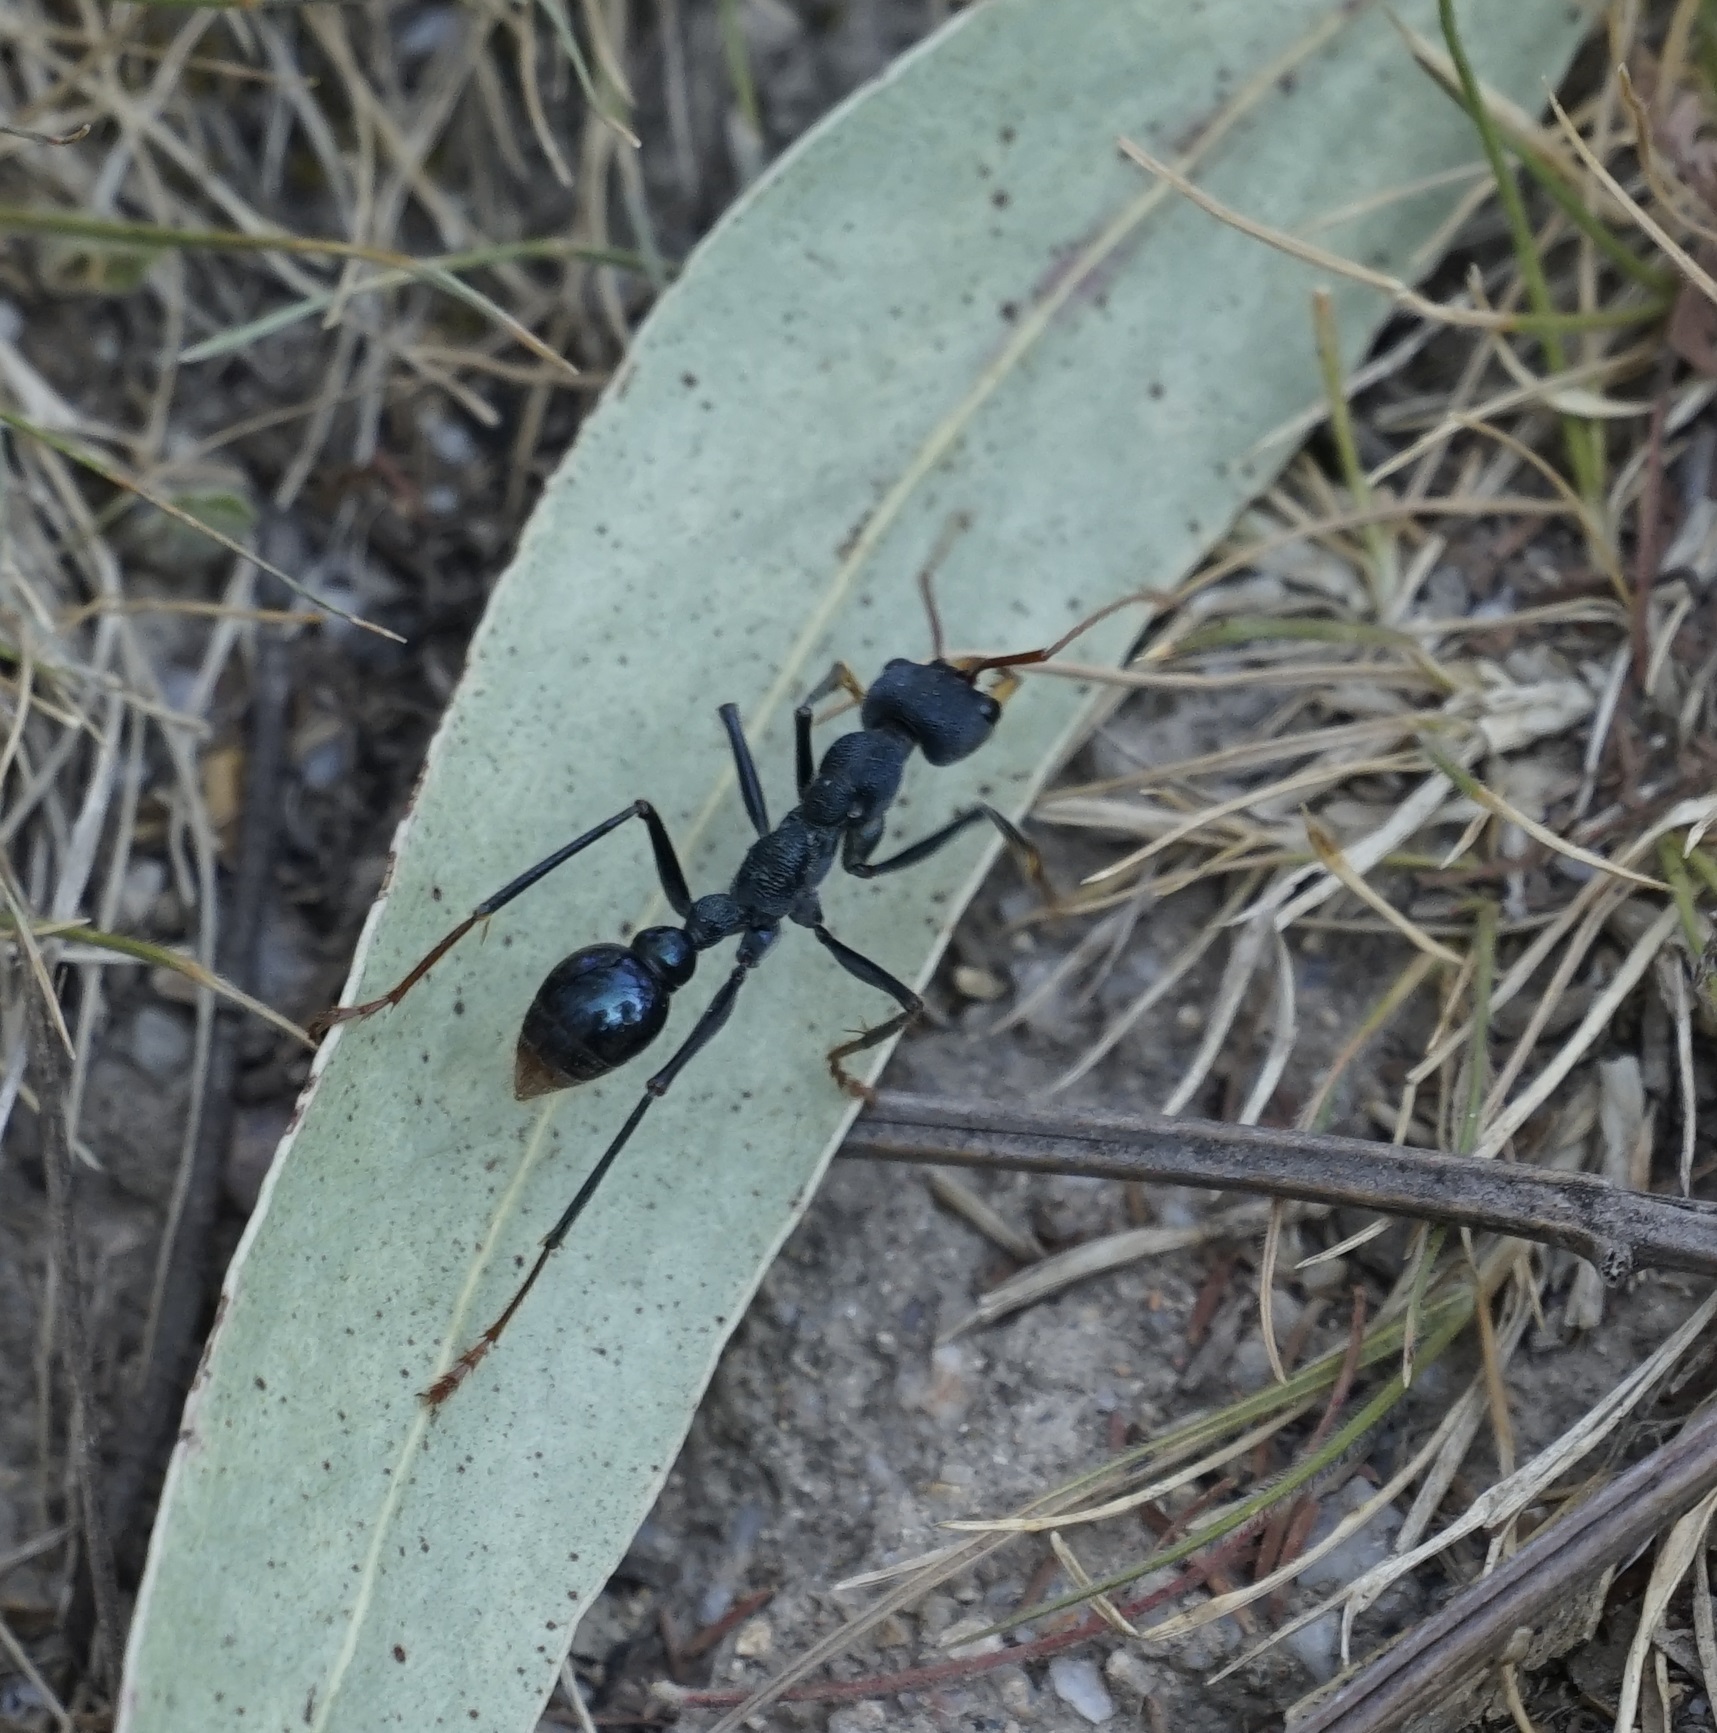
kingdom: Animalia
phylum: Arthropoda
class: Insecta
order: Hymenoptera
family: Formicidae
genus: Myrmecia
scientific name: Myrmecia tarsata
